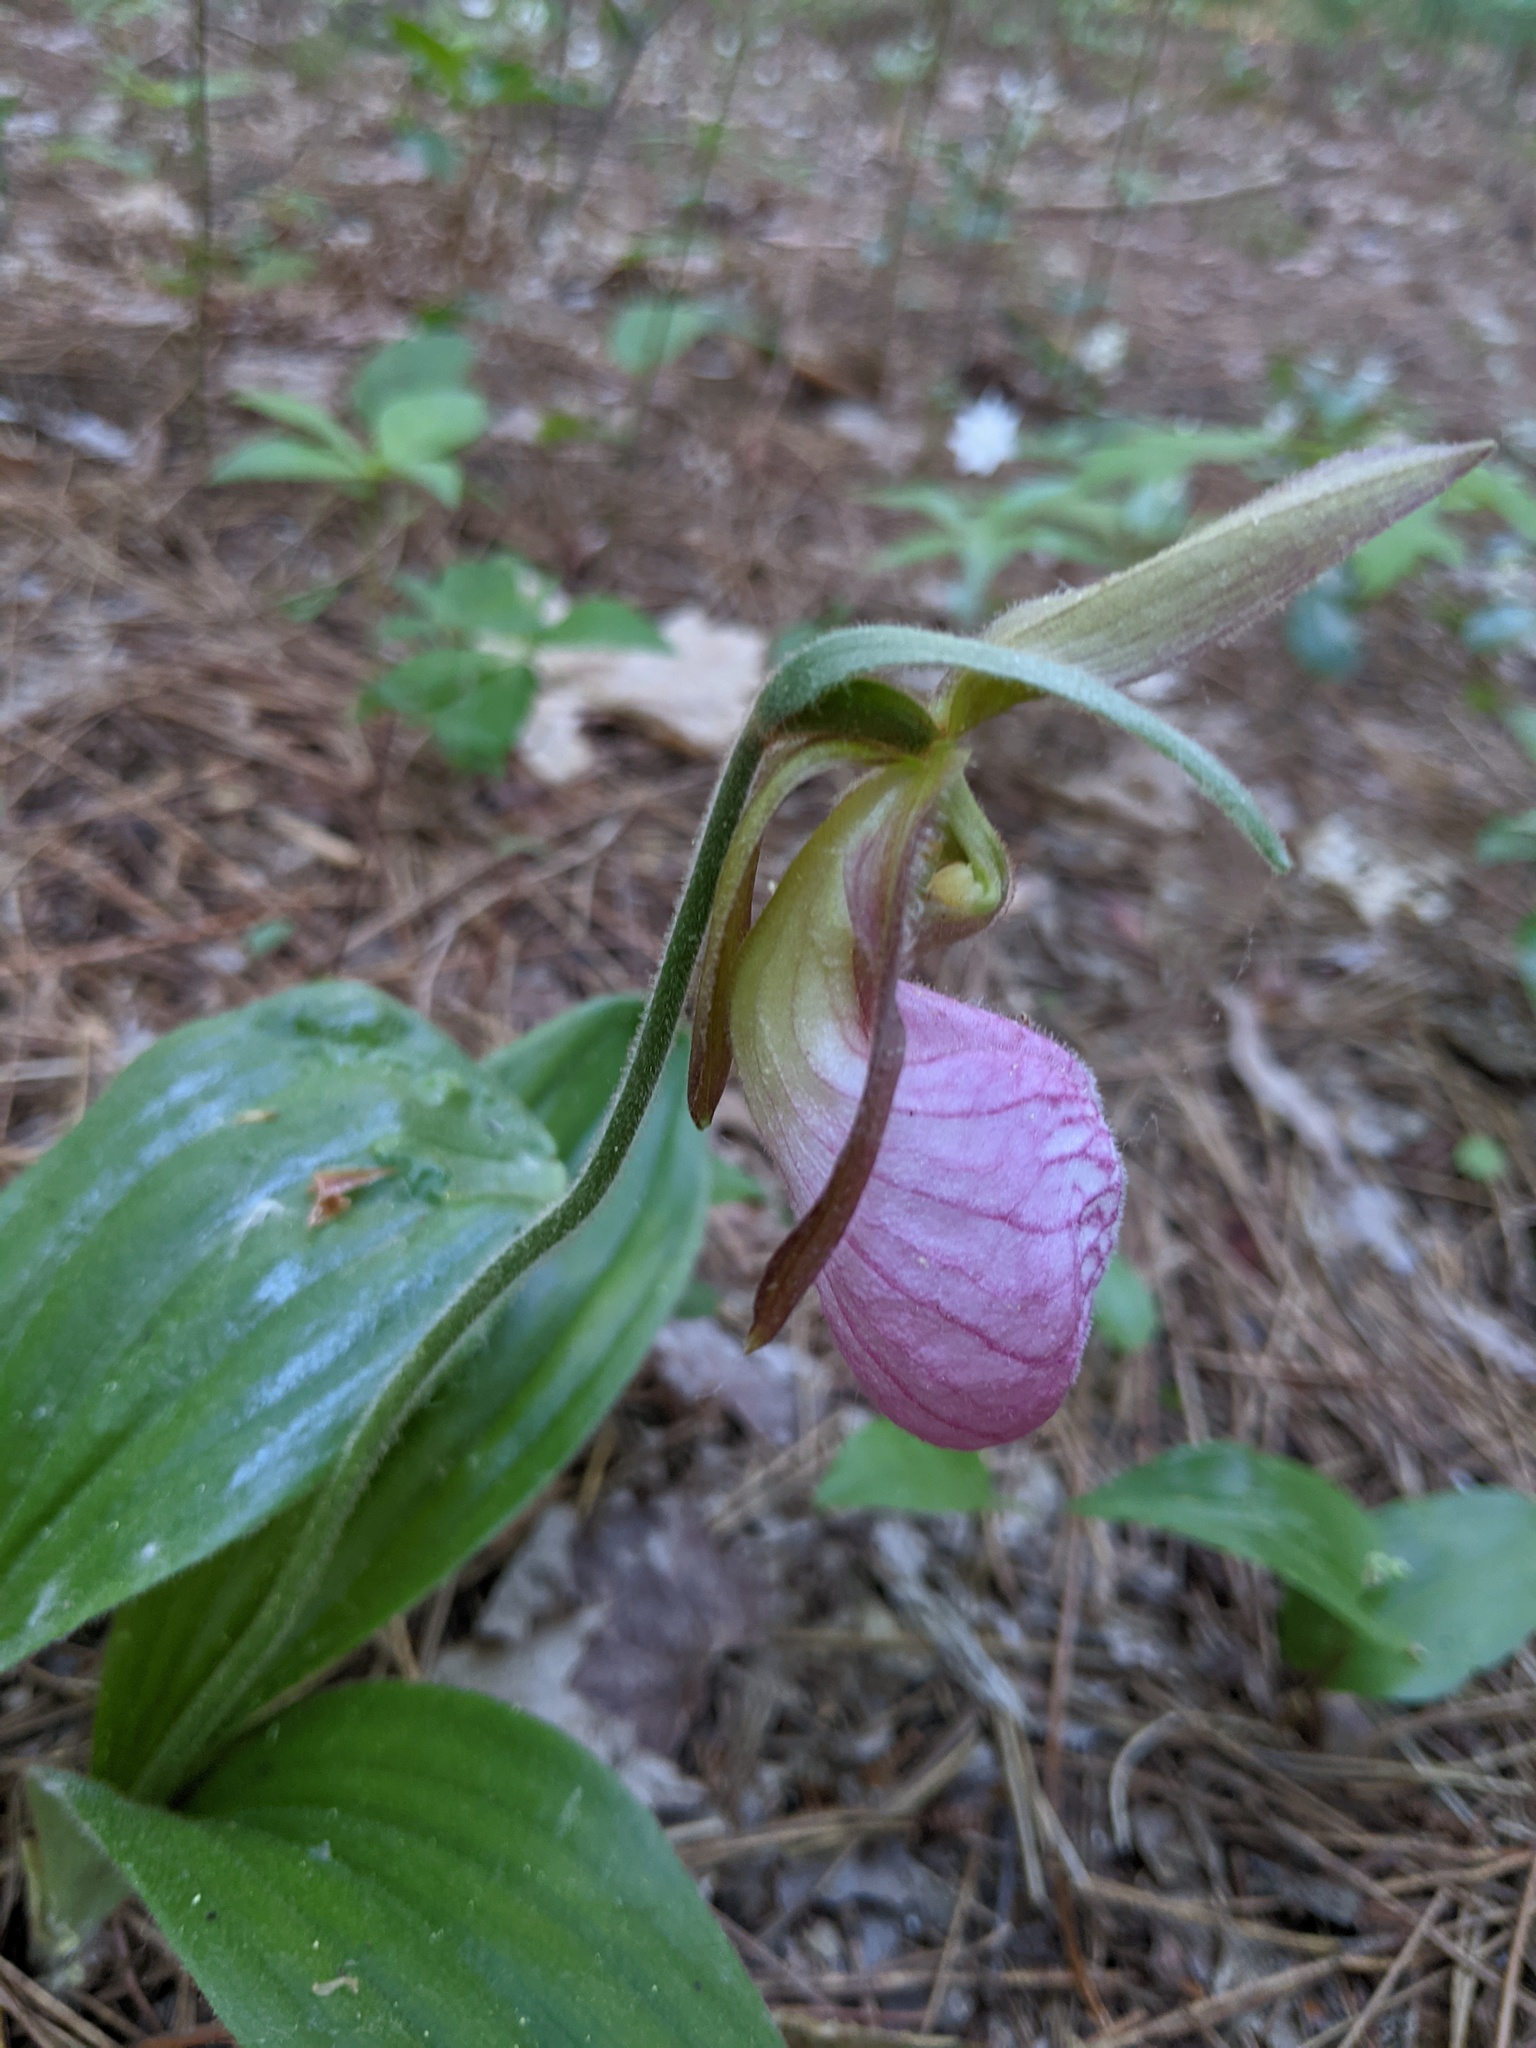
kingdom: Plantae
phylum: Tracheophyta
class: Liliopsida
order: Asparagales
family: Orchidaceae
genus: Cypripedium
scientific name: Cypripedium acaule
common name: Pink lady's-slipper
